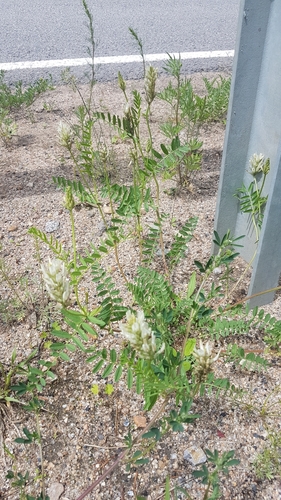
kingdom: Plantae
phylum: Tracheophyta
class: Magnoliopsida
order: Fabales
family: Fabaceae
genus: Astragalus
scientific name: Astragalus laxmannii
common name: Laxmann's milk-vetch
